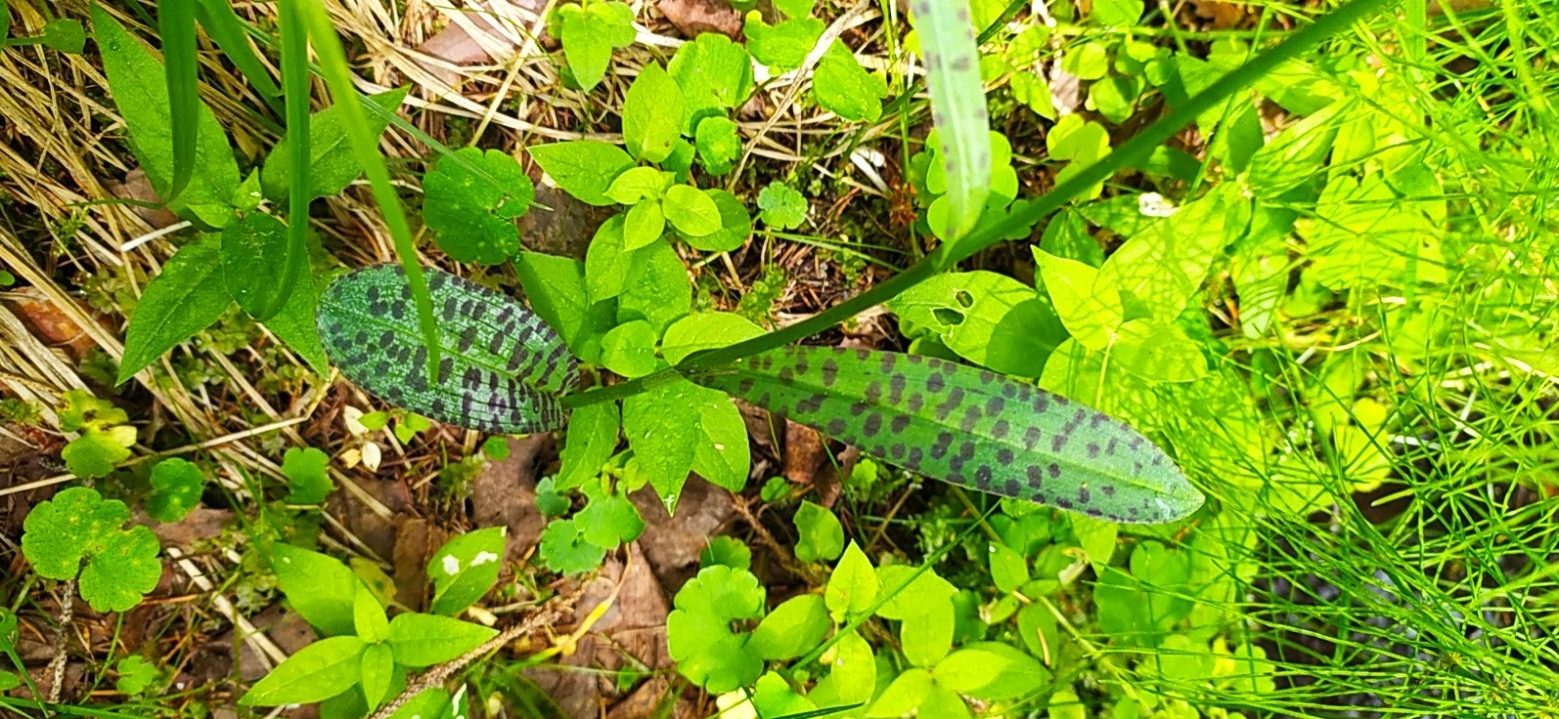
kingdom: Plantae
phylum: Tracheophyta
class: Liliopsida
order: Asparagales
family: Orchidaceae
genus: Dactylorhiza
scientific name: Dactylorhiza maculata
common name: Heath spotted-orchid
